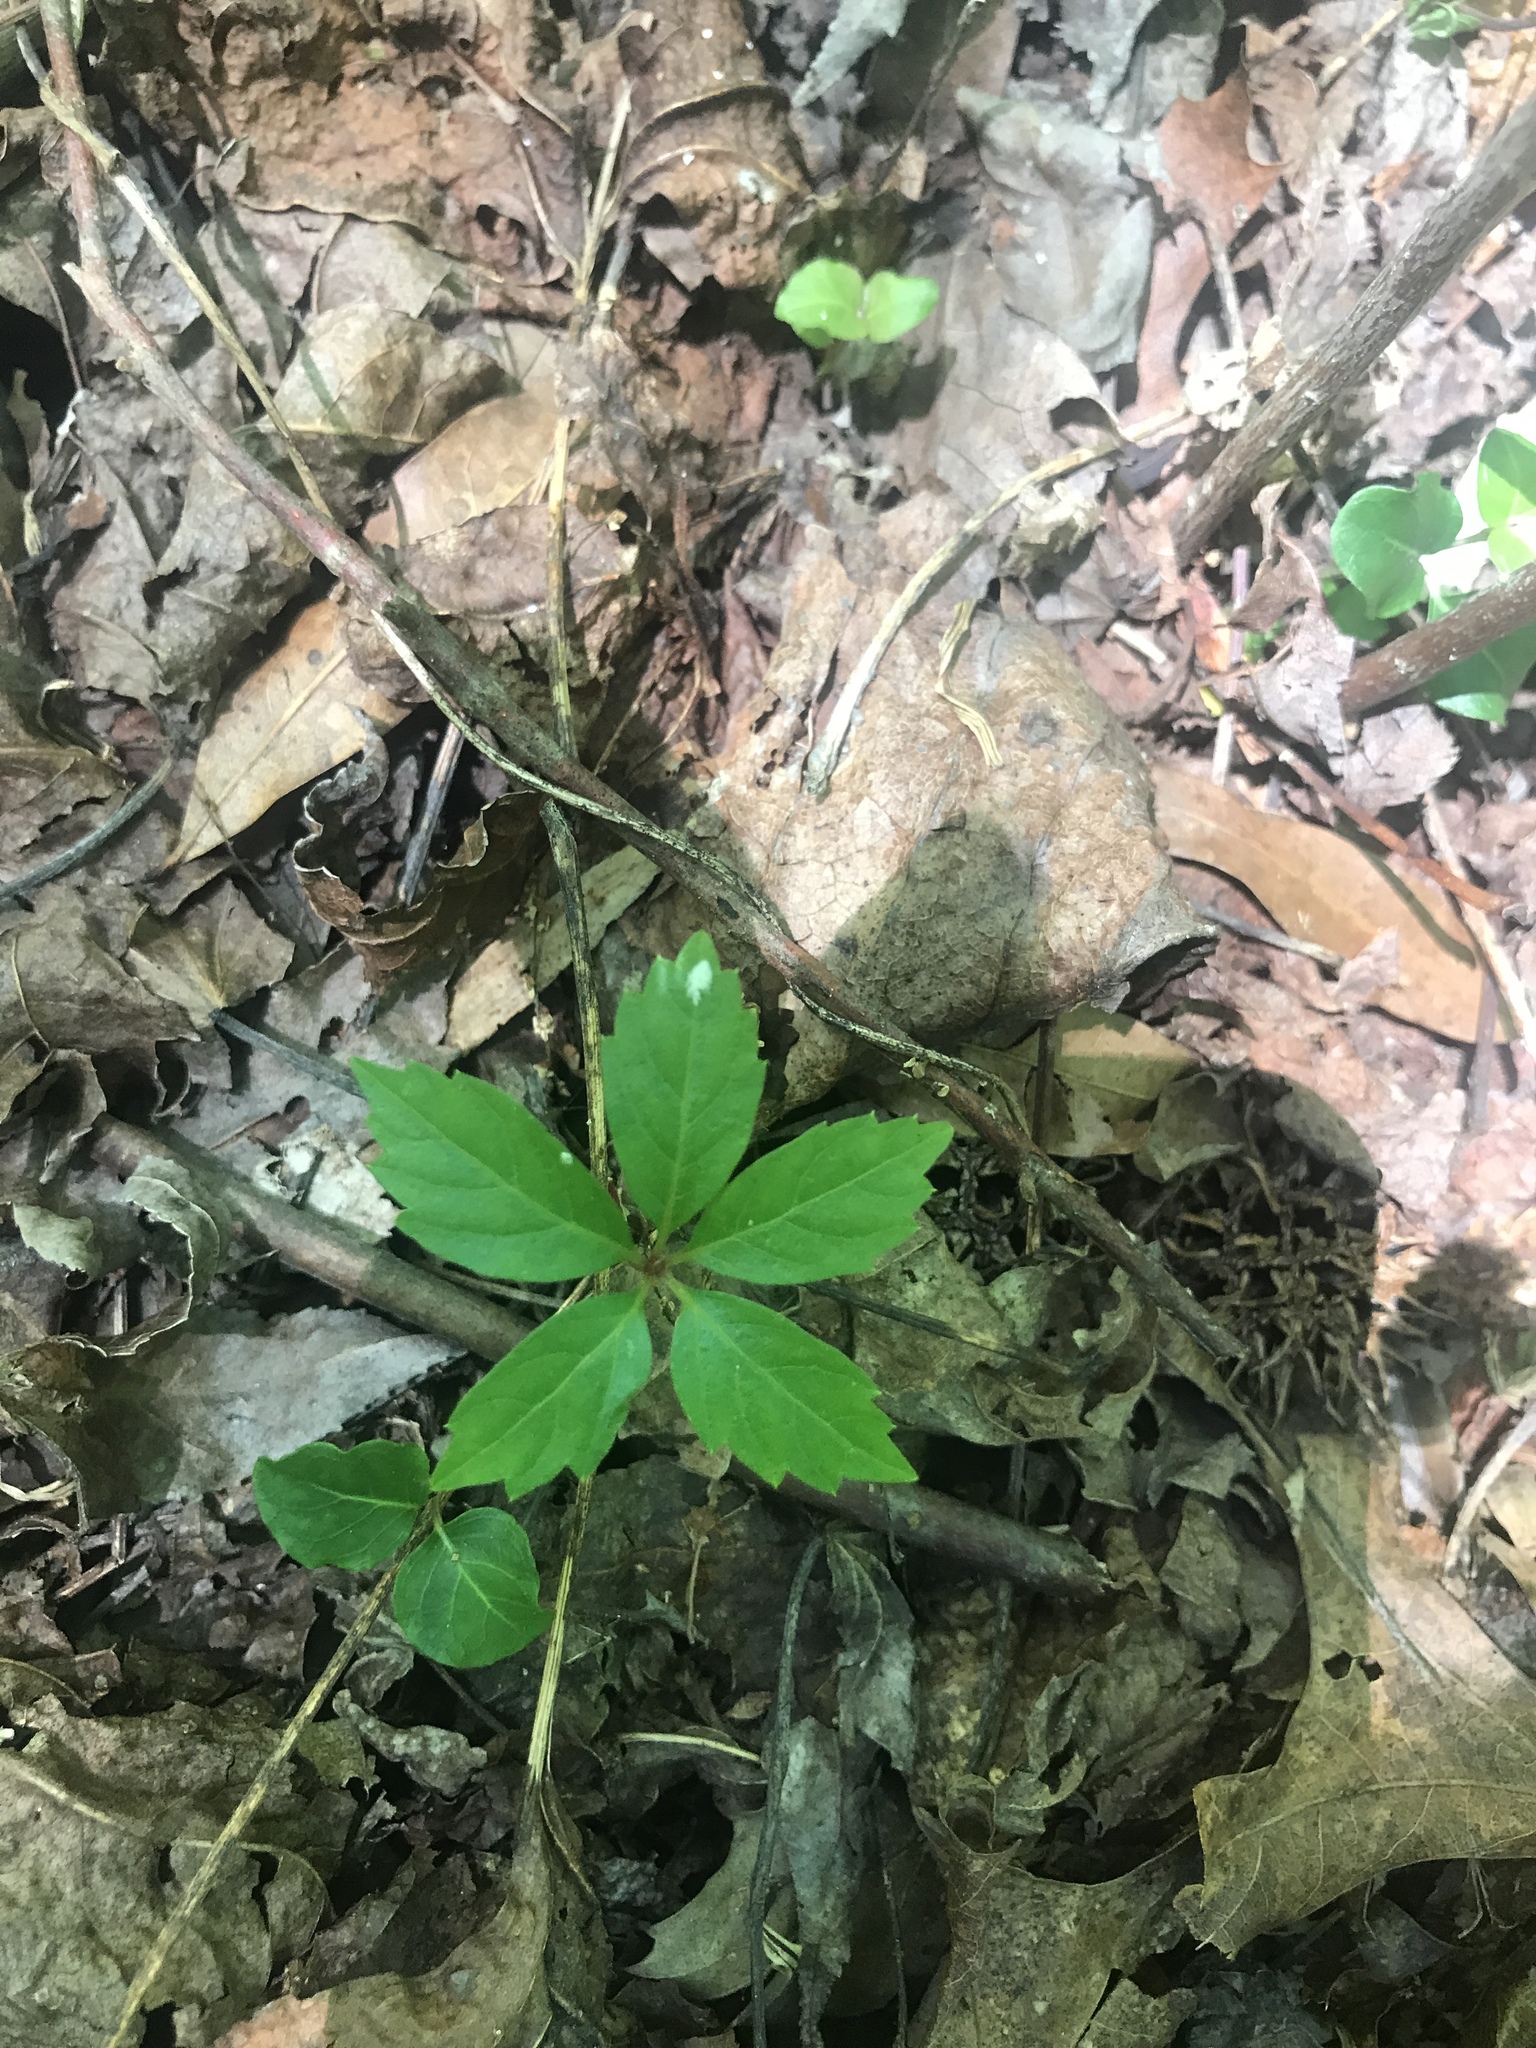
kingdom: Plantae
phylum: Tracheophyta
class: Magnoliopsida
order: Vitales
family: Vitaceae
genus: Parthenocissus
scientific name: Parthenocissus quinquefolia
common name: Virginia-creeper
